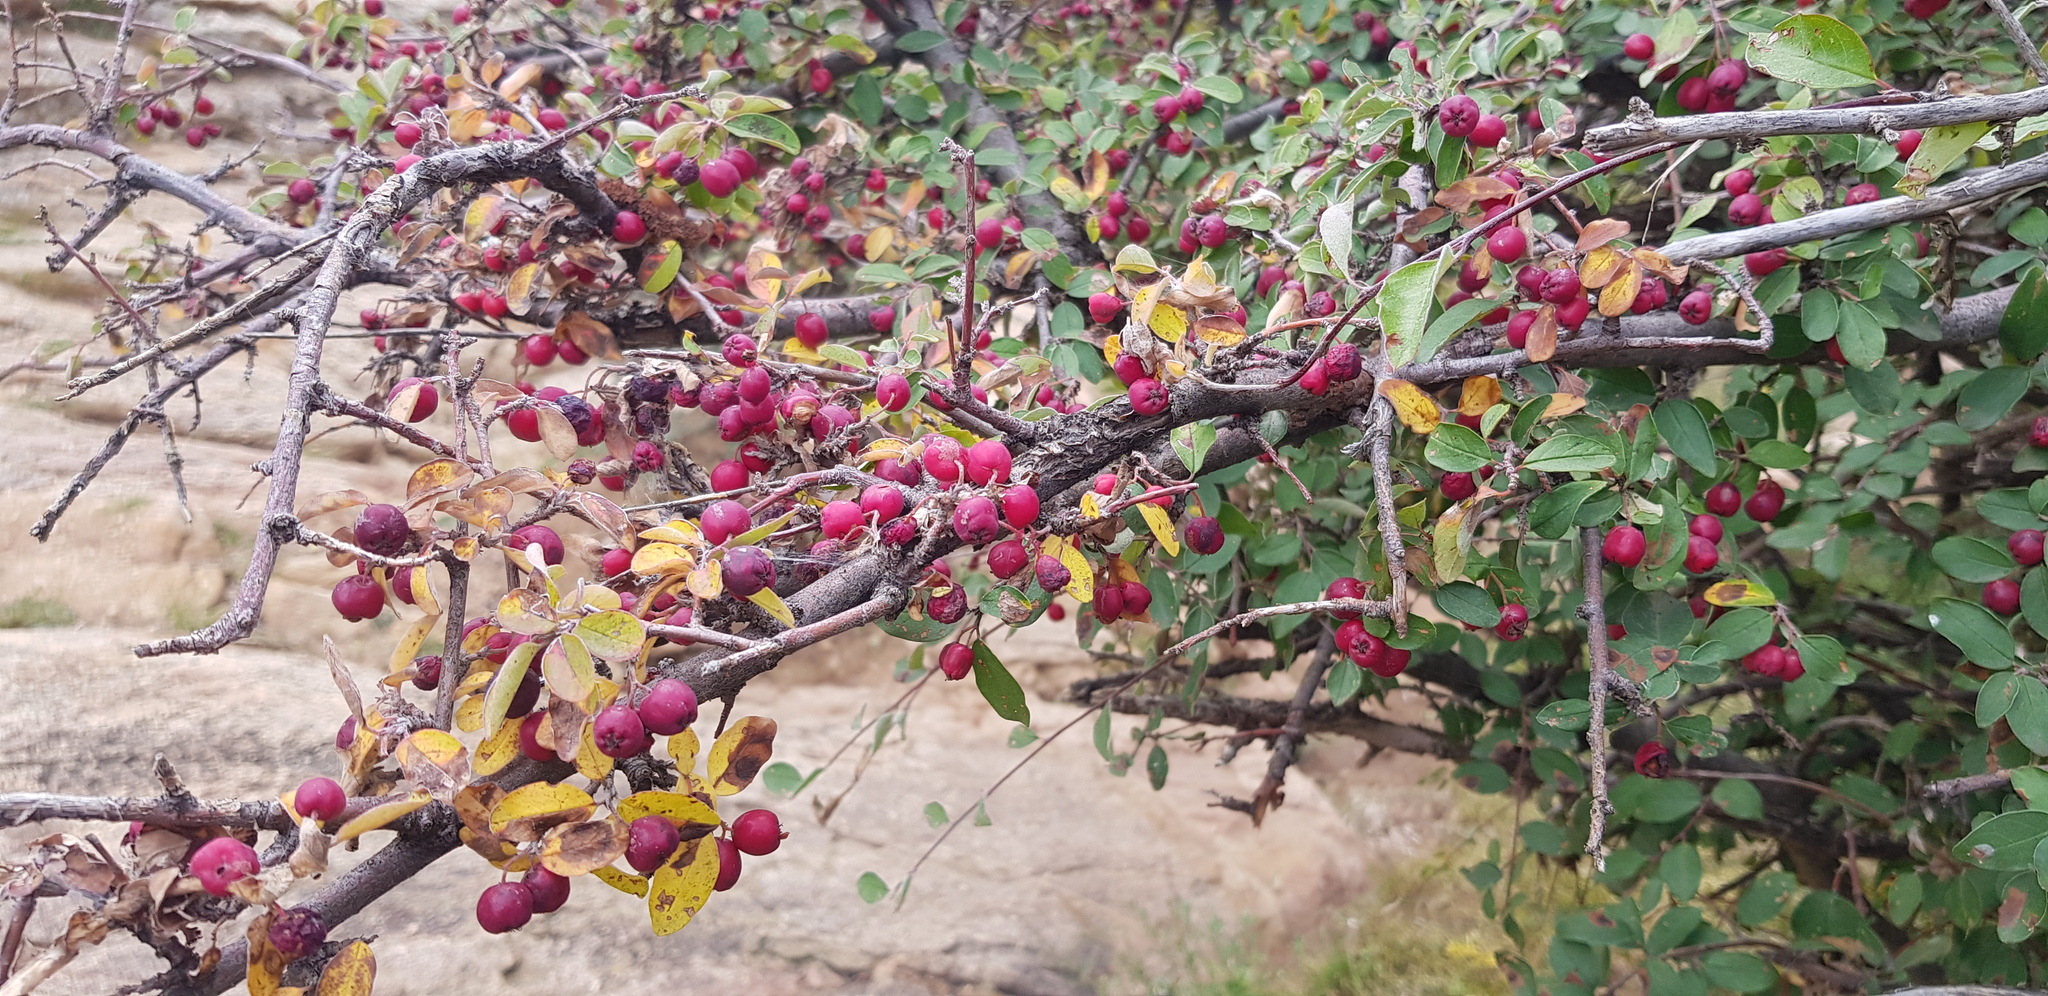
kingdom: Plantae
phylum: Tracheophyta
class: Magnoliopsida
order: Rosales
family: Rosaceae
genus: Cotoneaster
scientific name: Cotoneaster melanocarpus
